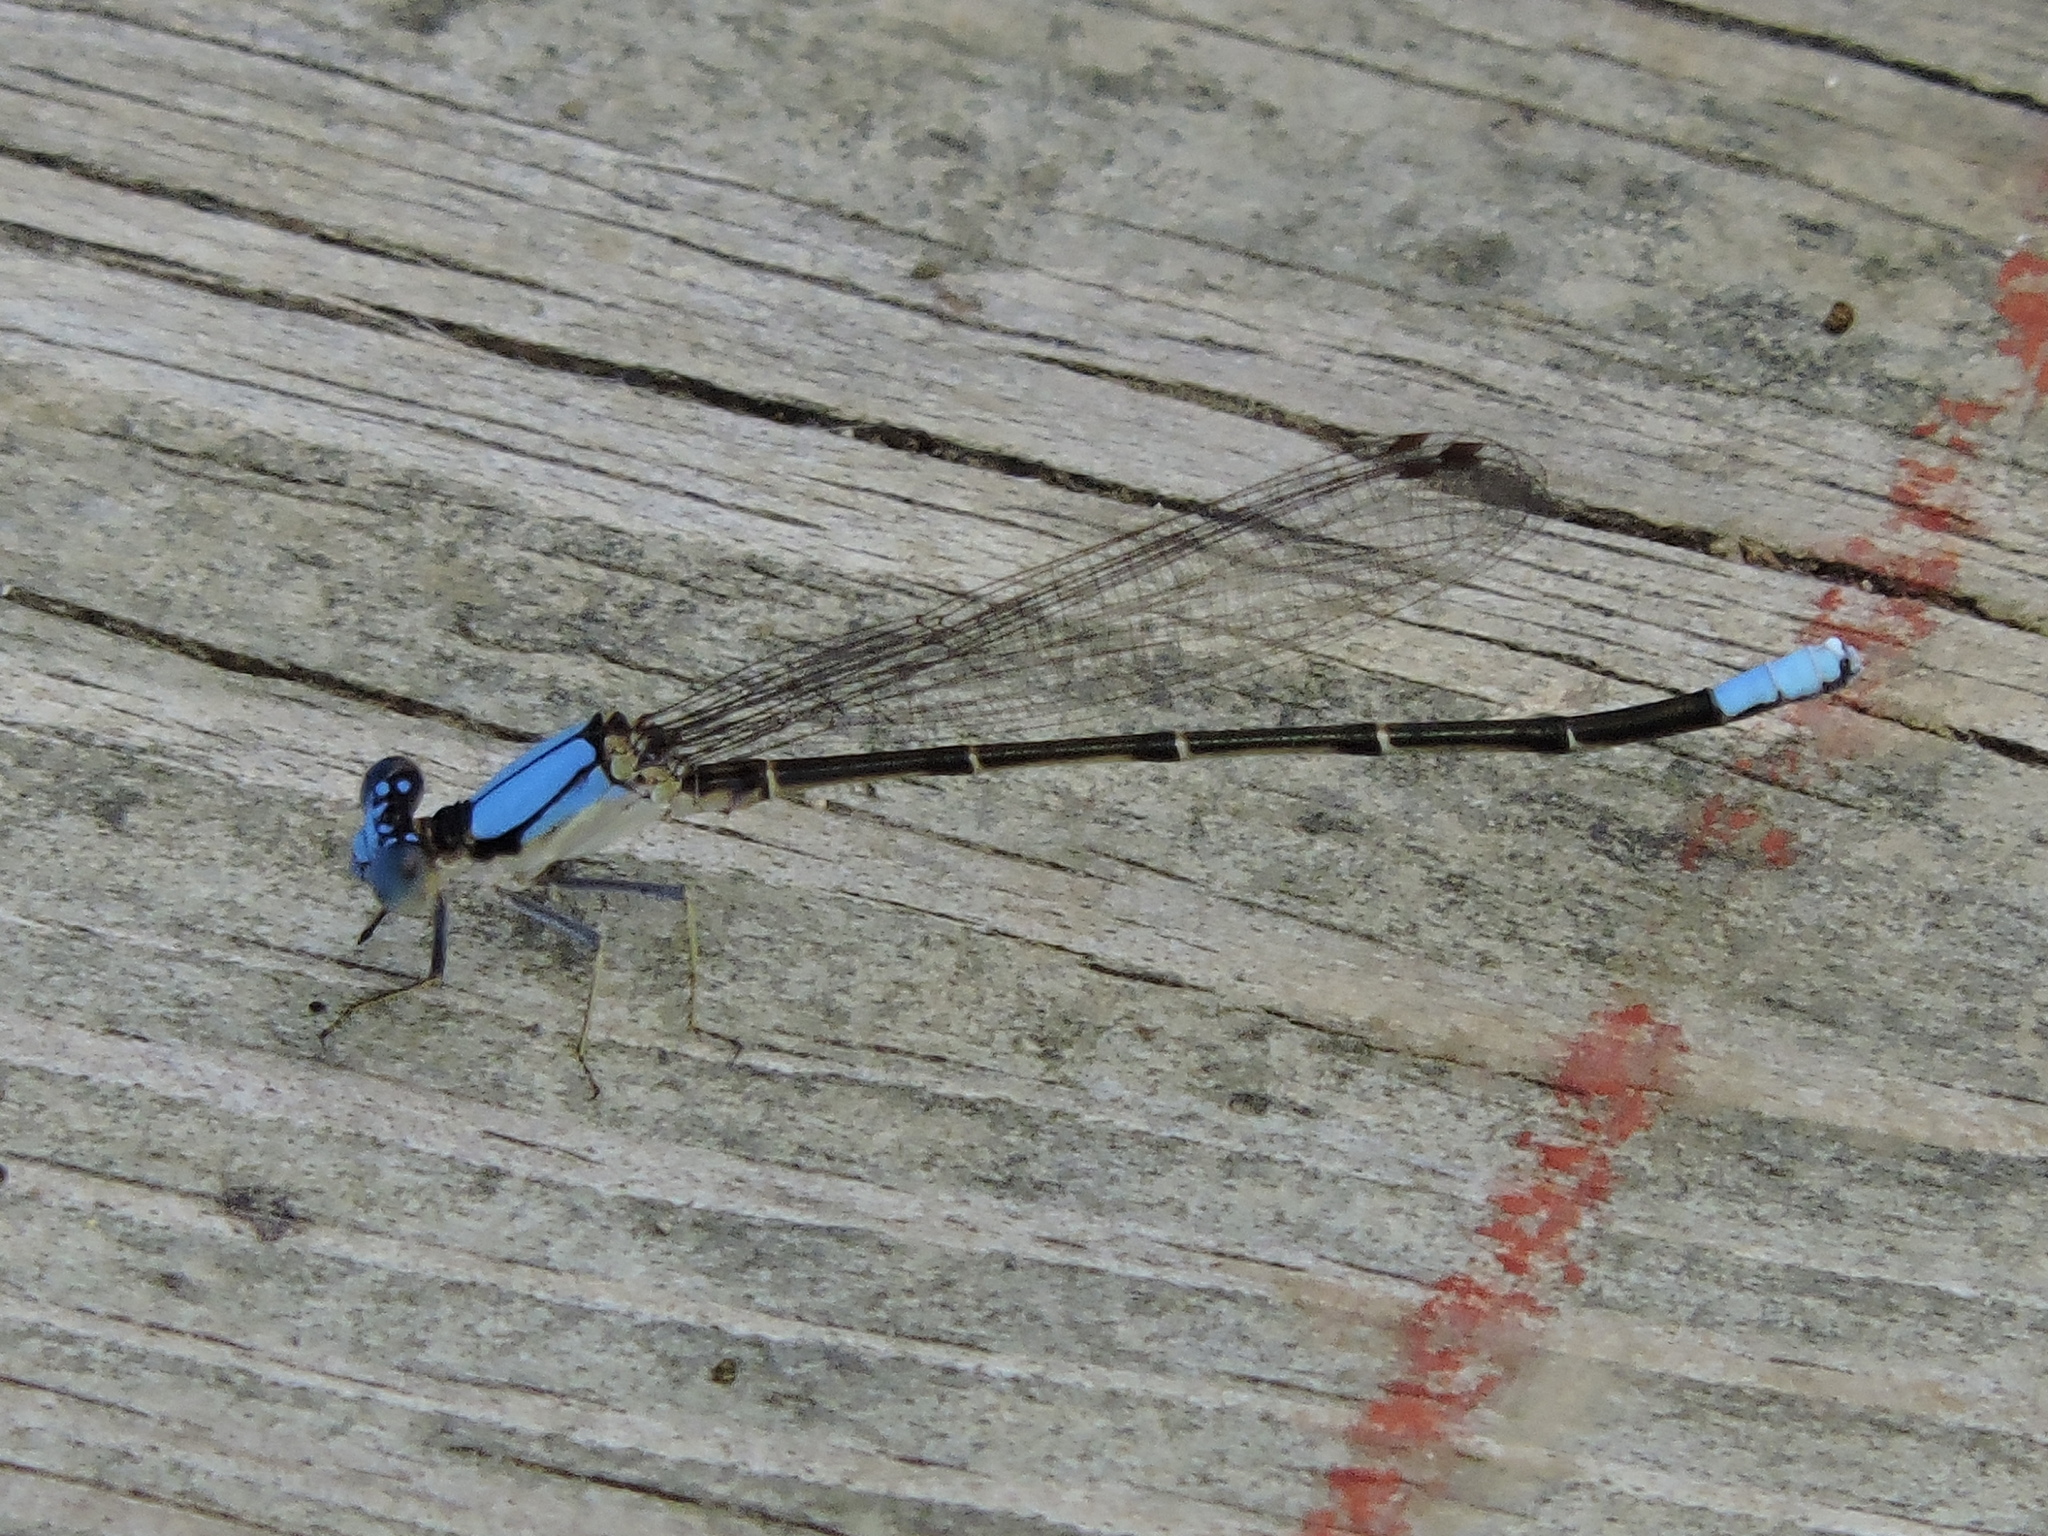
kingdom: Animalia
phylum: Arthropoda
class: Insecta
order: Odonata
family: Coenagrionidae
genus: Argia
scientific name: Argia apicalis
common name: Blue-fronted dancer
